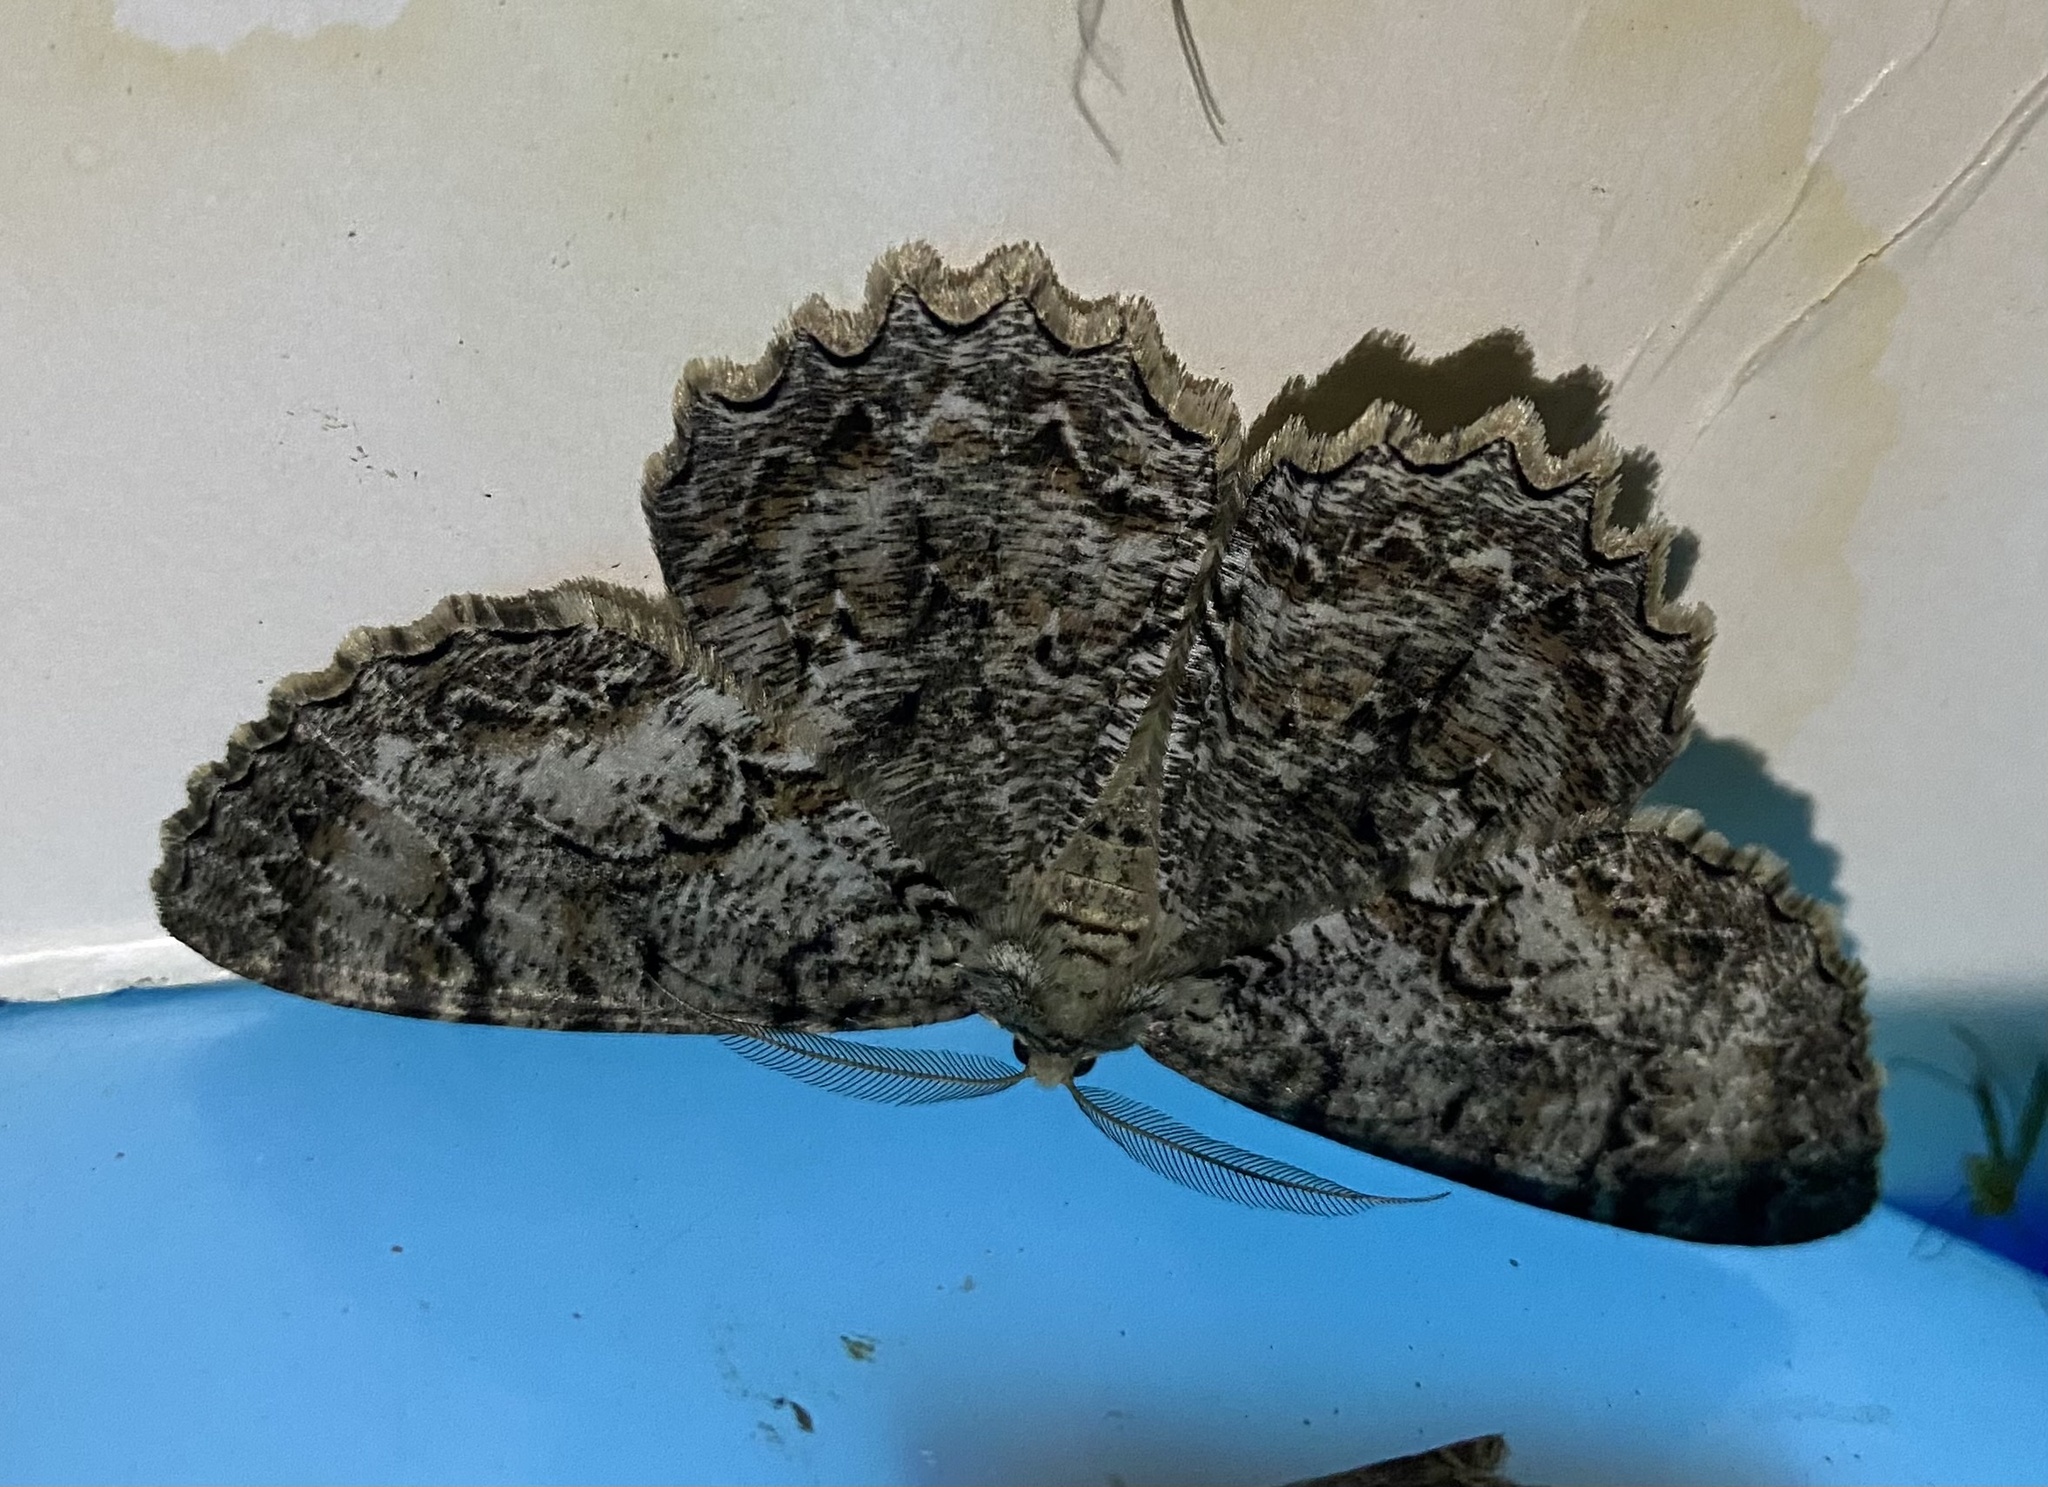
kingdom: Animalia
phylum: Arthropoda
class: Insecta
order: Lepidoptera
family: Geometridae
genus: Epimecis
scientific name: Epimecis hortaria
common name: Tulip-tree beauty
